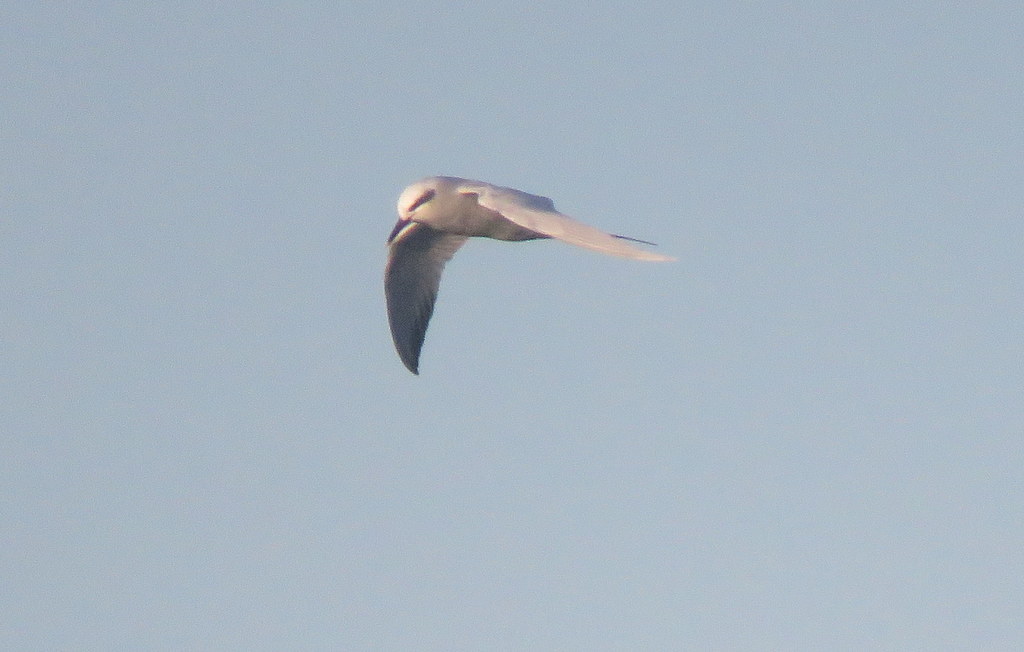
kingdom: Animalia
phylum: Chordata
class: Aves
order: Charadriiformes
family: Laridae
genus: Sterna
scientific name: Sterna trudeaui
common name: Snowy-crowned tern
